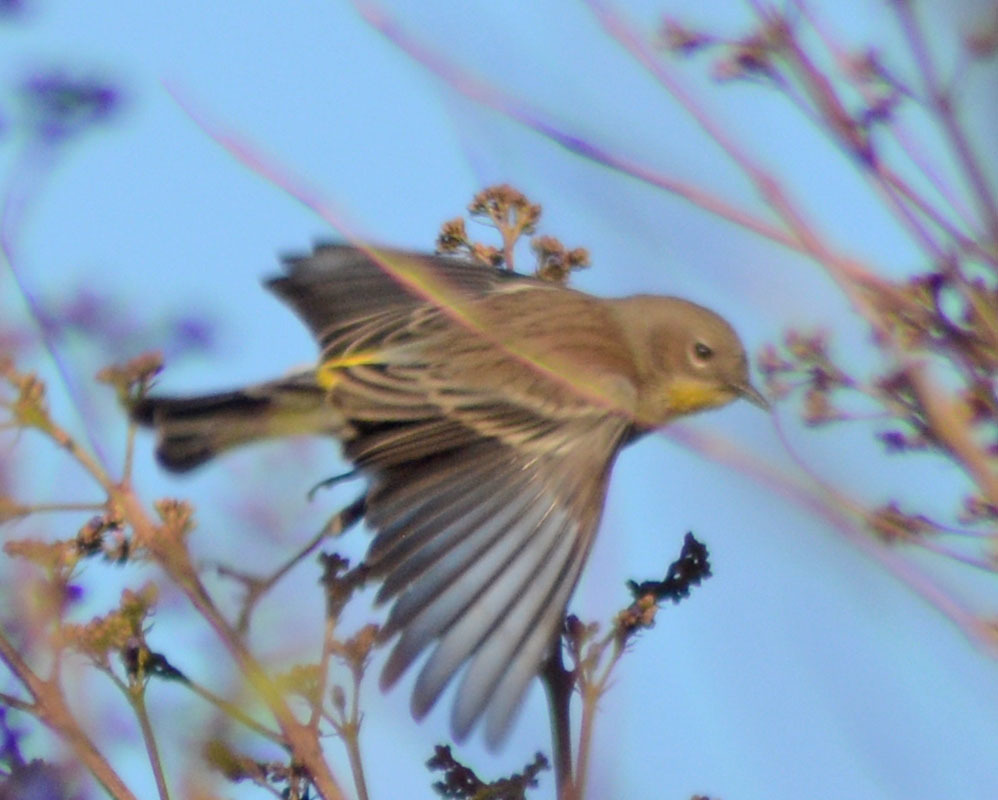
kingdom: Animalia
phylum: Chordata
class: Aves
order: Passeriformes
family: Parulidae
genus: Setophaga
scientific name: Setophaga auduboni
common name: Audubon's warbler
